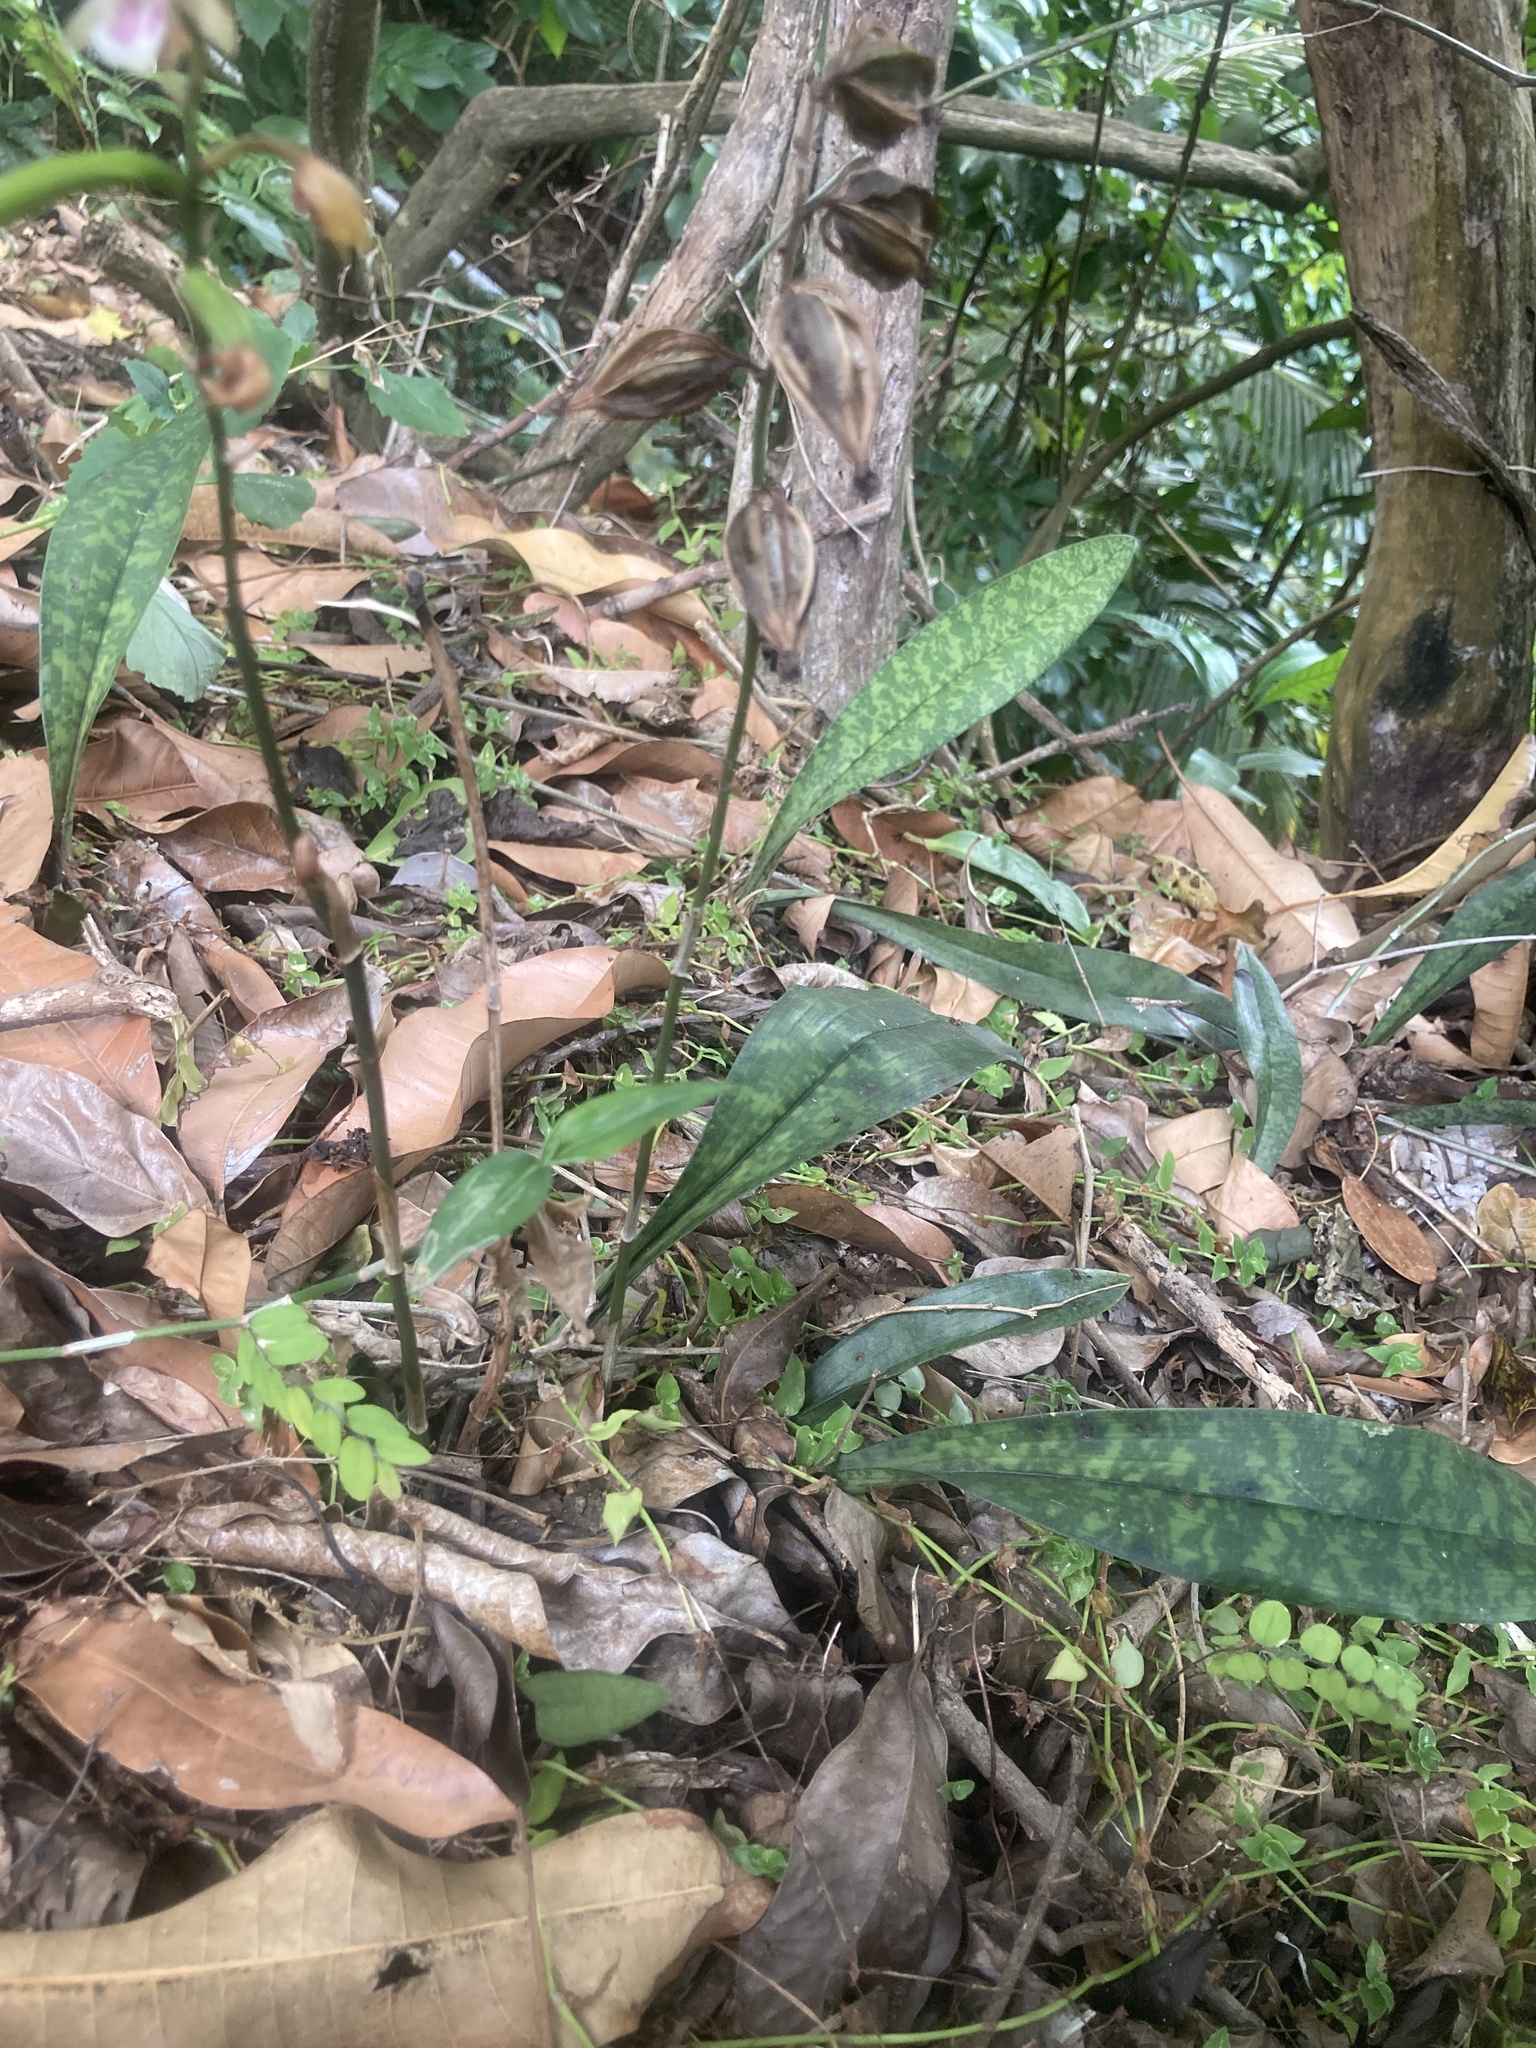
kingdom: Plantae
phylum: Tracheophyta
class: Liliopsida
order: Asparagales
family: Orchidaceae
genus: Eulophia
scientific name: Eulophia maculata
